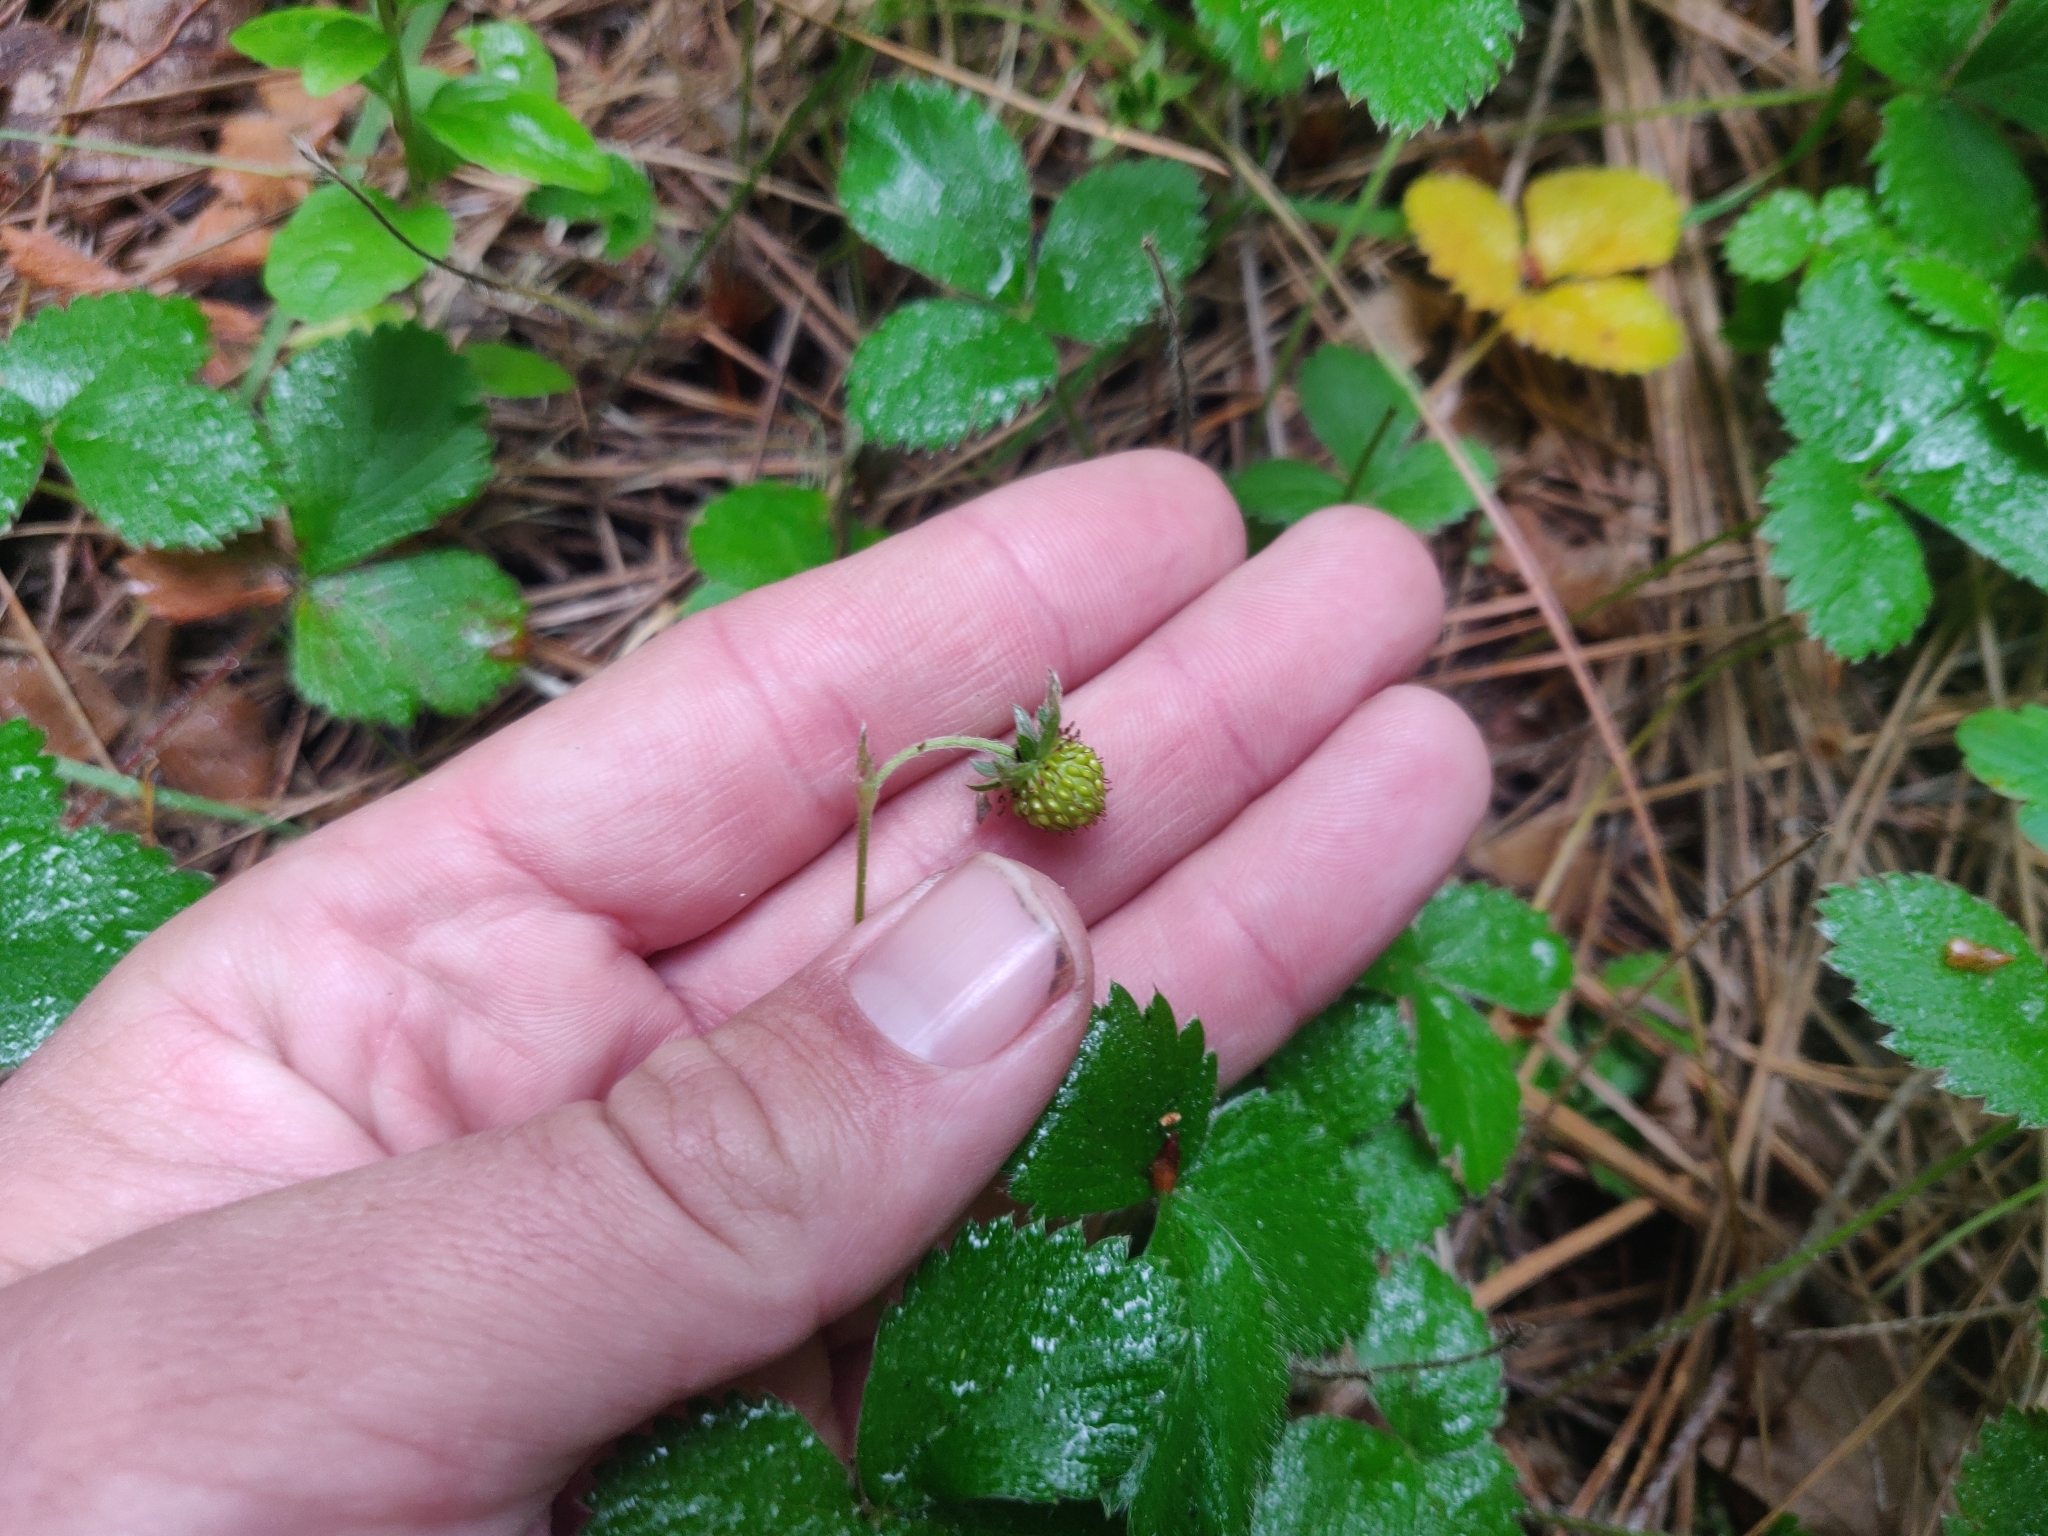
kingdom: Plantae
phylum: Tracheophyta
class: Magnoliopsida
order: Rosales
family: Rosaceae
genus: Fragaria
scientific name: Fragaria vesca
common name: Wild strawberry
